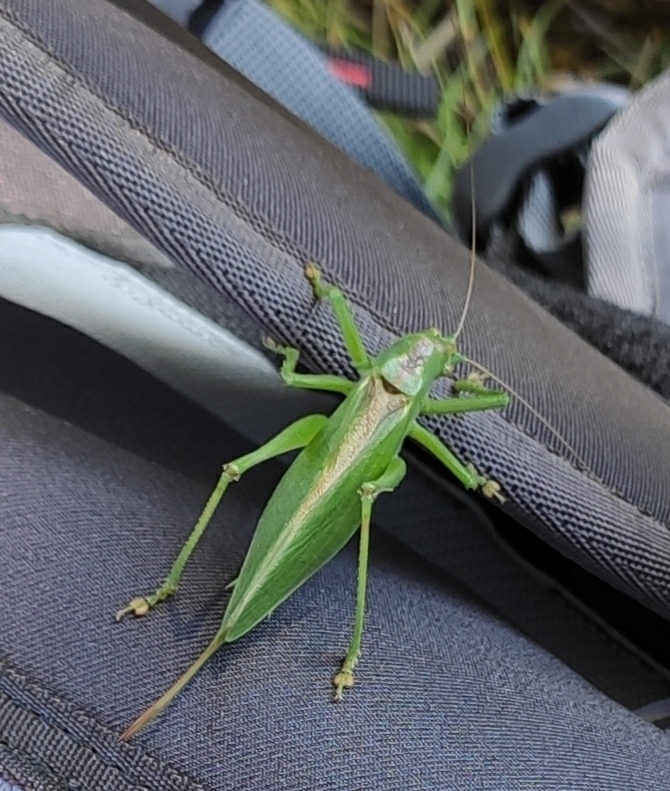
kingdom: Animalia
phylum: Arthropoda
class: Insecta
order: Orthoptera
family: Tettigoniidae
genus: Tettigonia
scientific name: Tettigonia cantans
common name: Upland green bush-cricket
